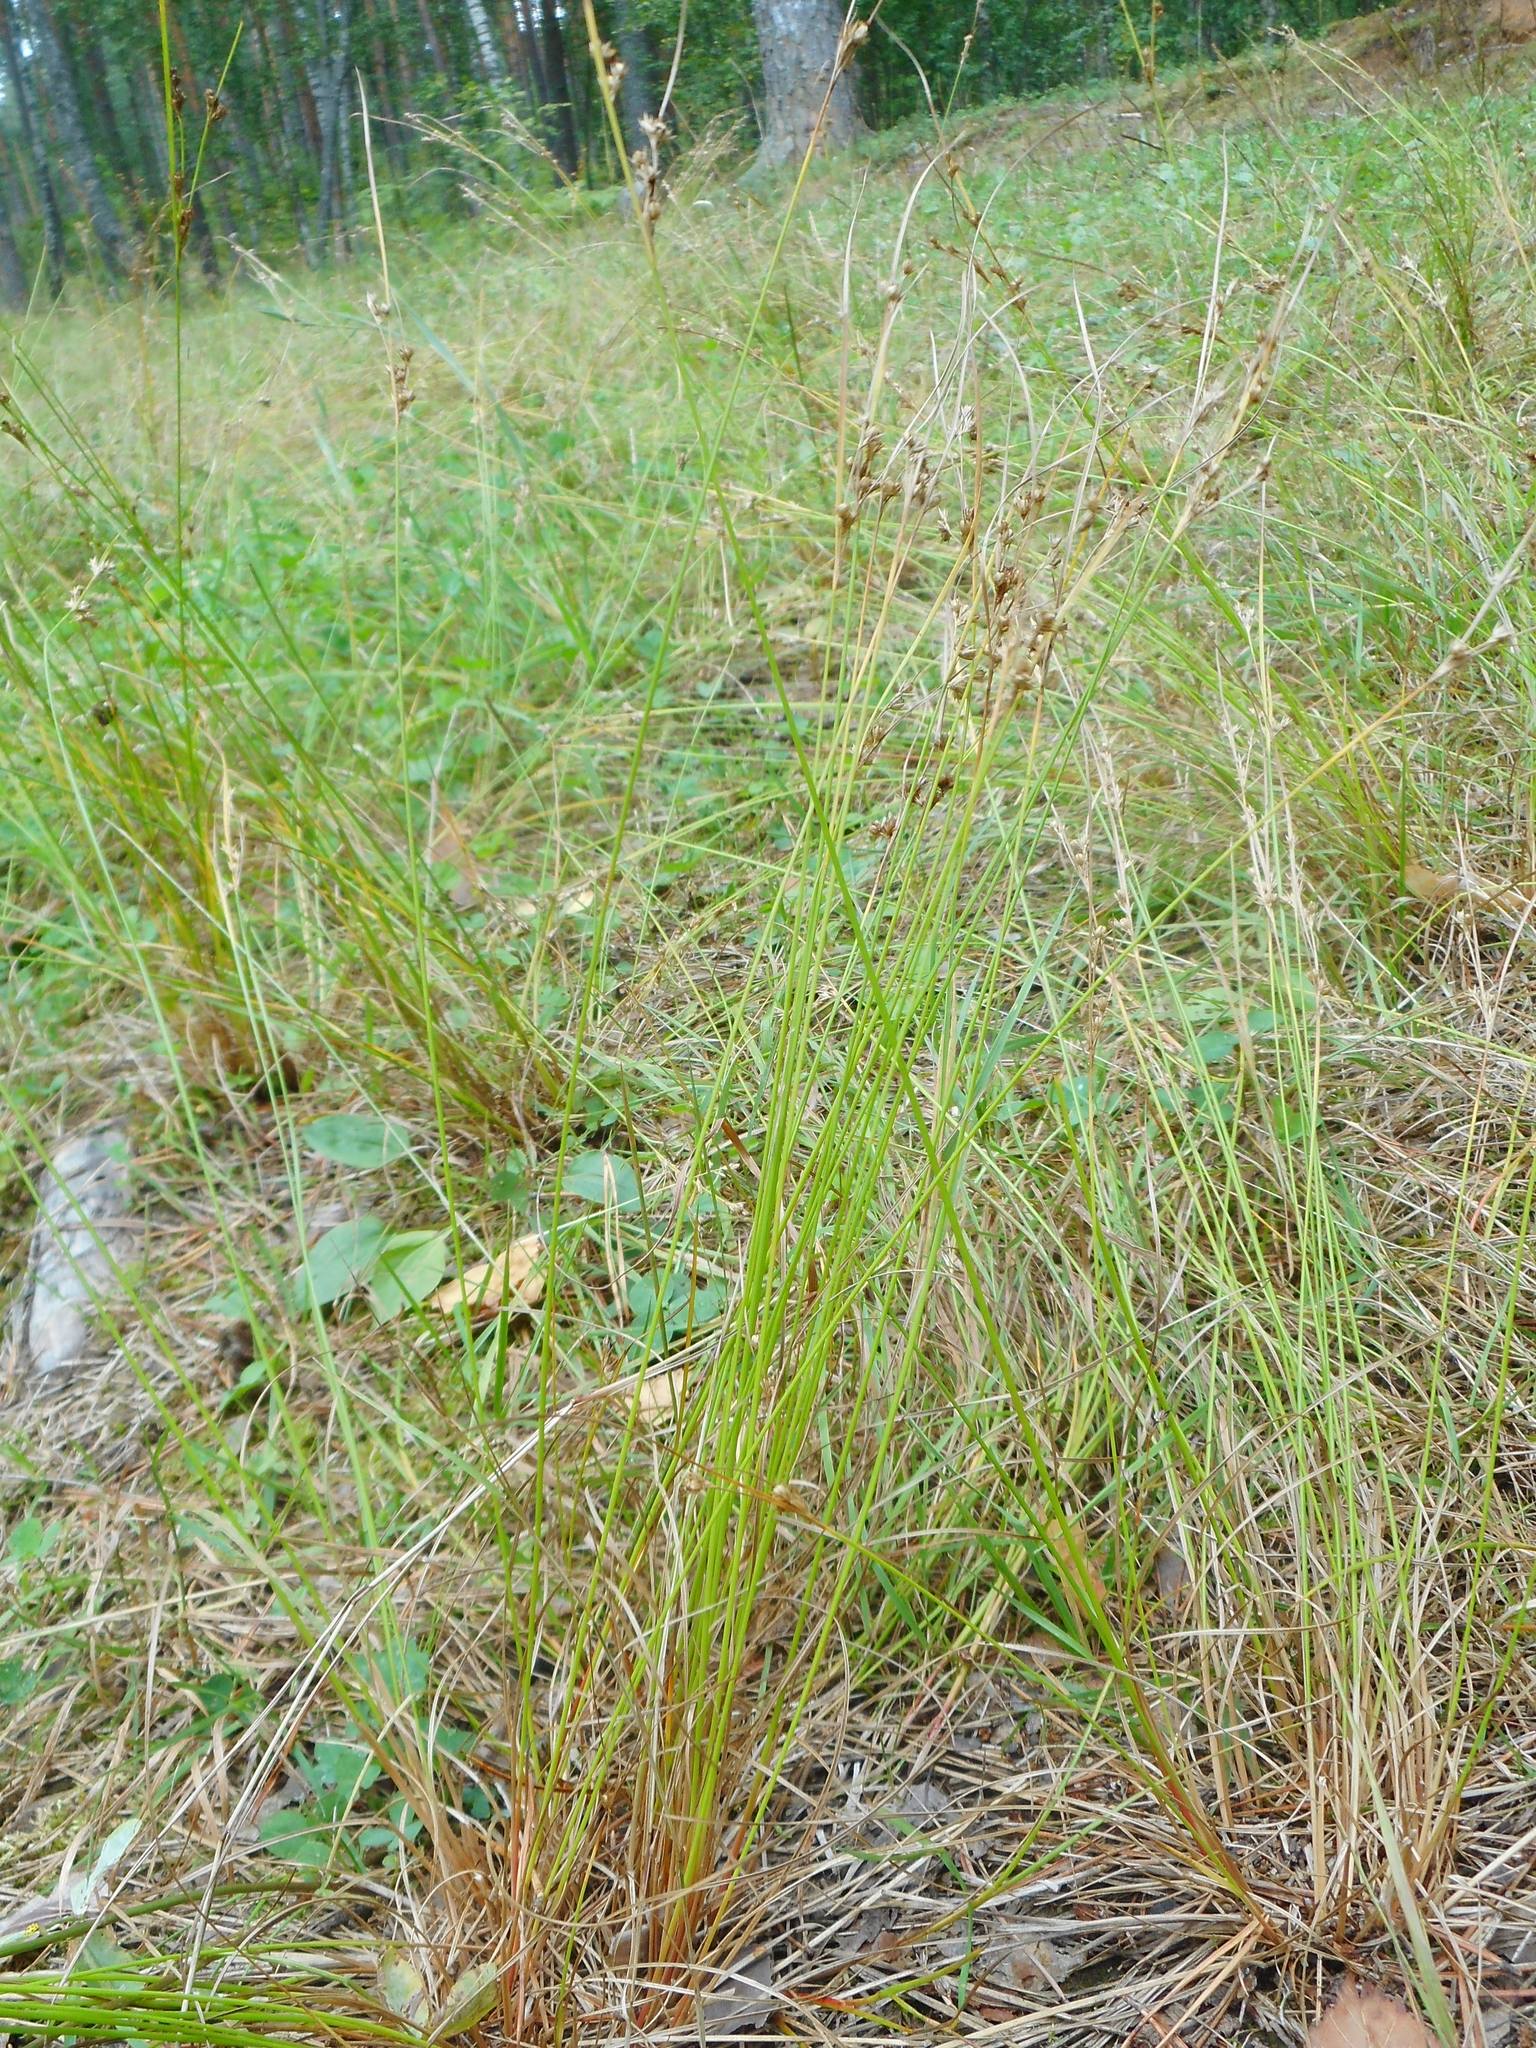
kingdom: Plantae
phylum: Tracheophyta
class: Liliopsida
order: Poales
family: Juncaceae
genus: Juncus
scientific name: Juncus tenuis
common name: Slender rush
